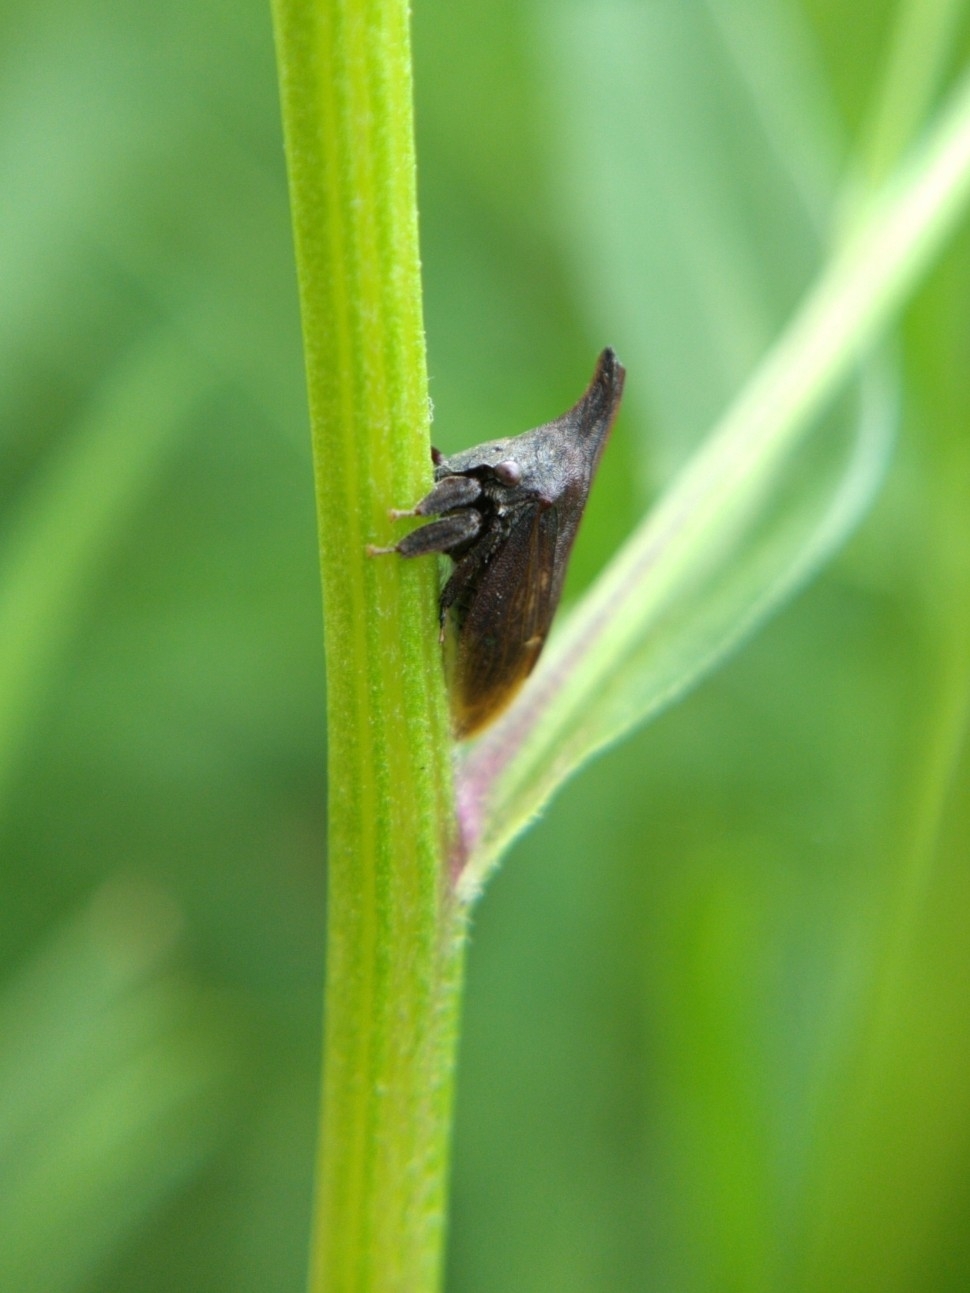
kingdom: Animalia
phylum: Arthropoda
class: Insecta
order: Hemiptera
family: Membracidae
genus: Enchenopa
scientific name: Enchenopa latipes
